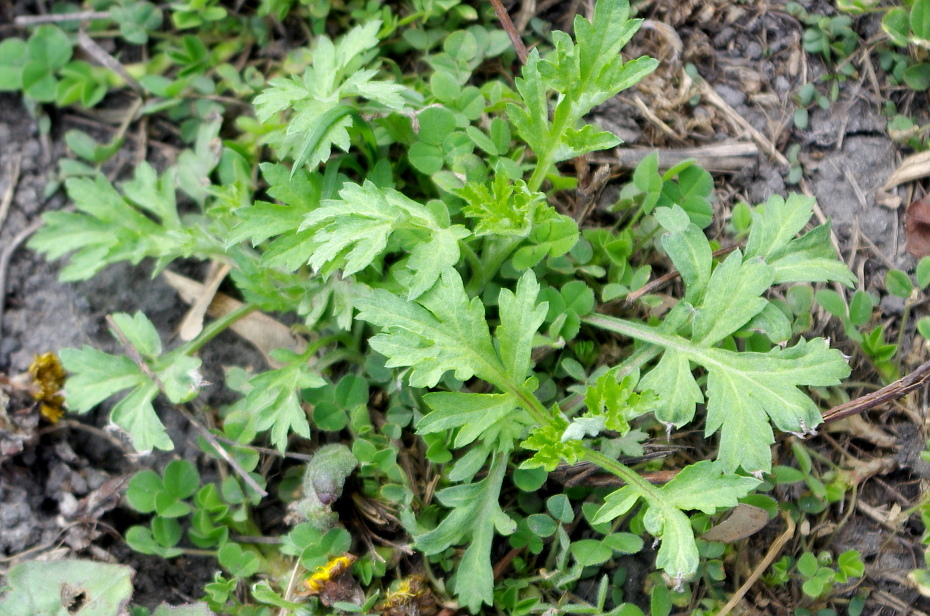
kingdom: Plantae
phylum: Tracheophyta
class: Magnoliopsida
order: Asterales
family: Asteraceae
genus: Artemisia
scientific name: Artemisia vulgaris
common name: Mugwort
